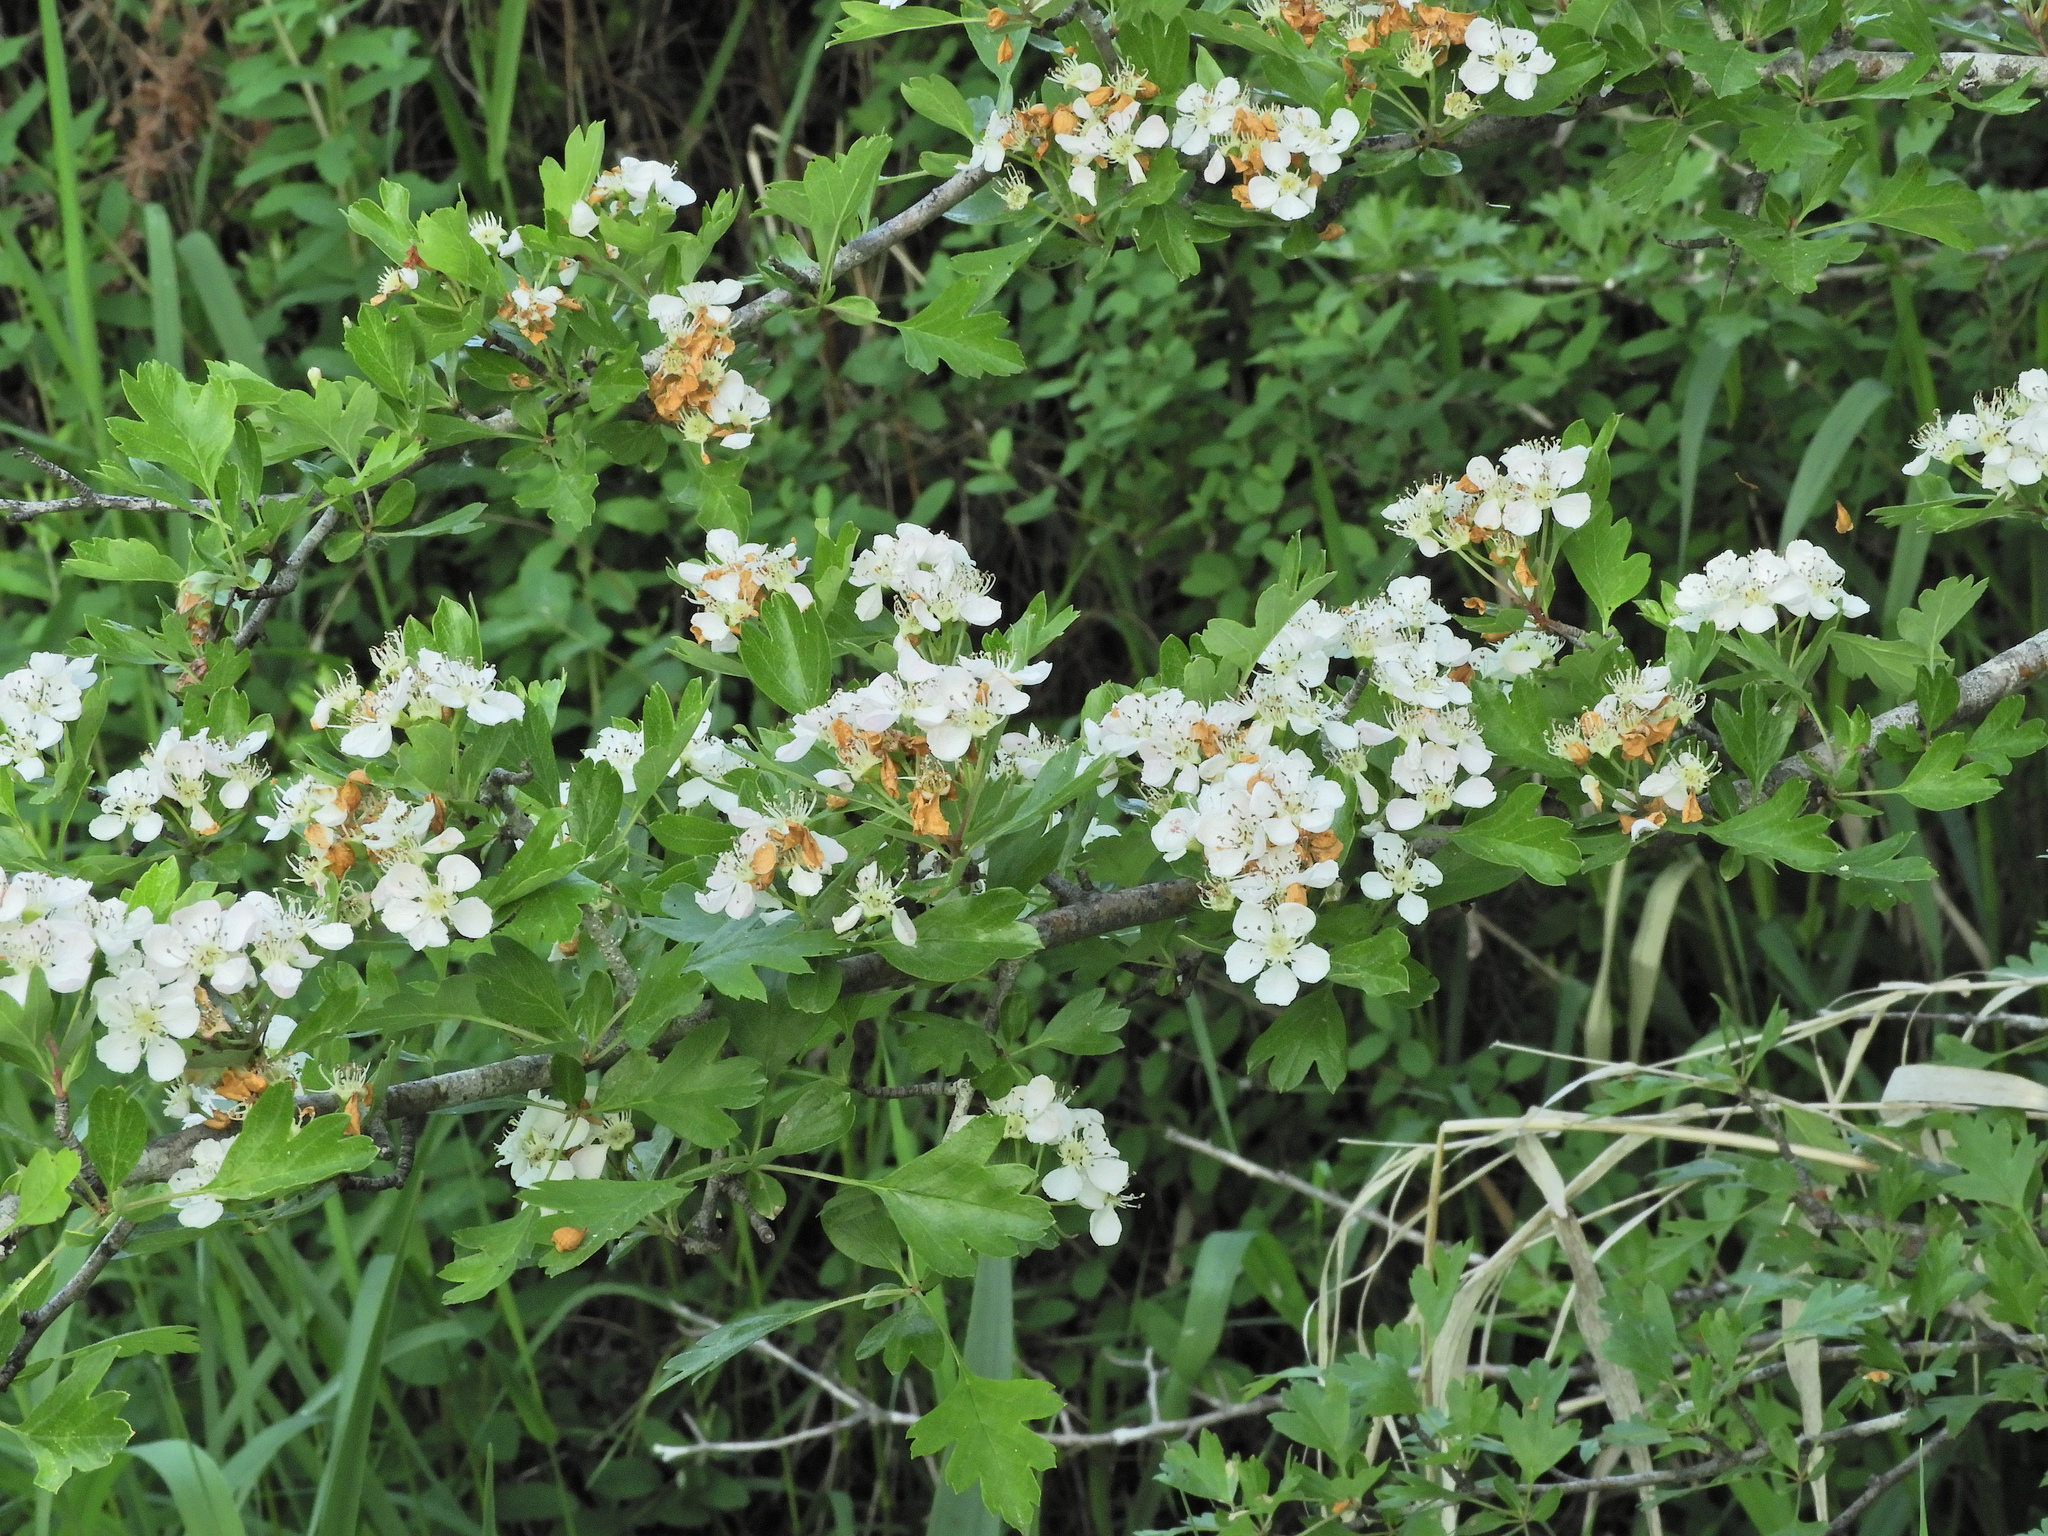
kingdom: Plantae
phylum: Tracheophyta
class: Magnoliopsida
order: Rosales
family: Rosaceae
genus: Crataegus
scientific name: Crataegus monogyna
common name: Hawthorn
